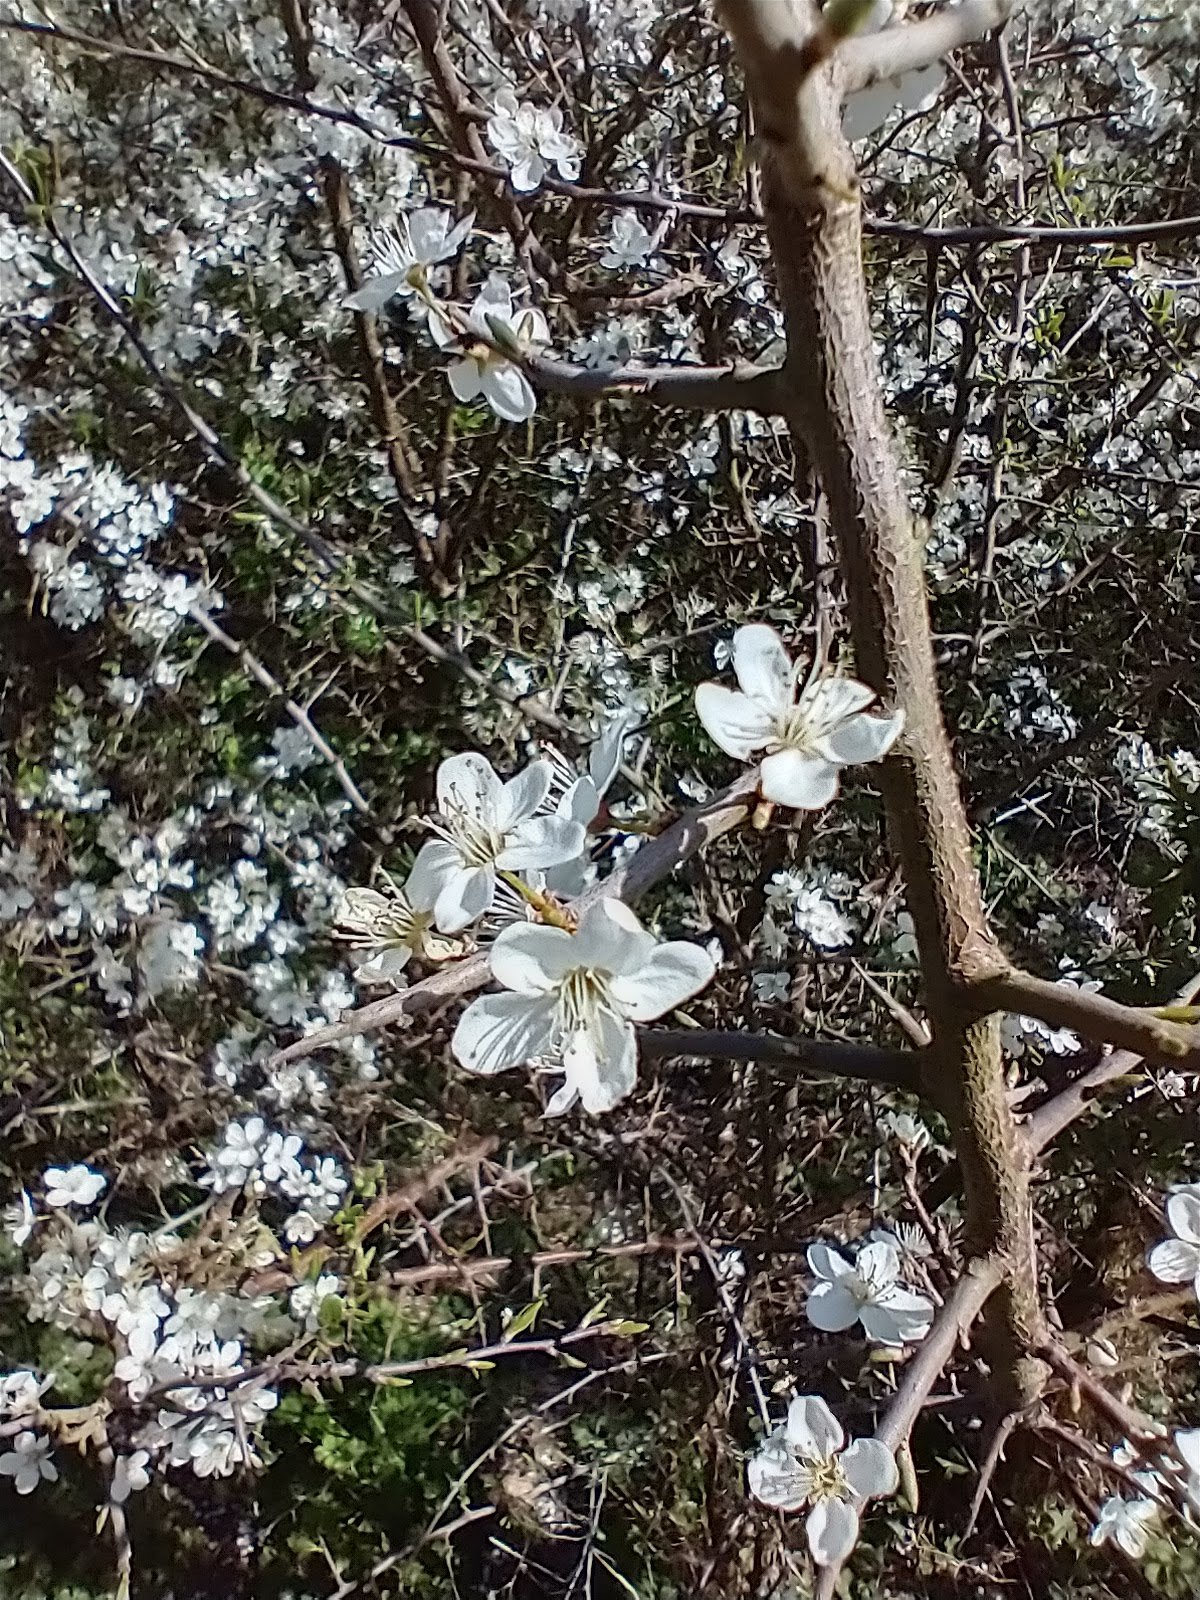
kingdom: Plantae
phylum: Tracheophyta
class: Magnoliopsida
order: Rosales
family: Rosaceae
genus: Prunus
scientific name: Prunus spinosa
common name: Blackthorn
